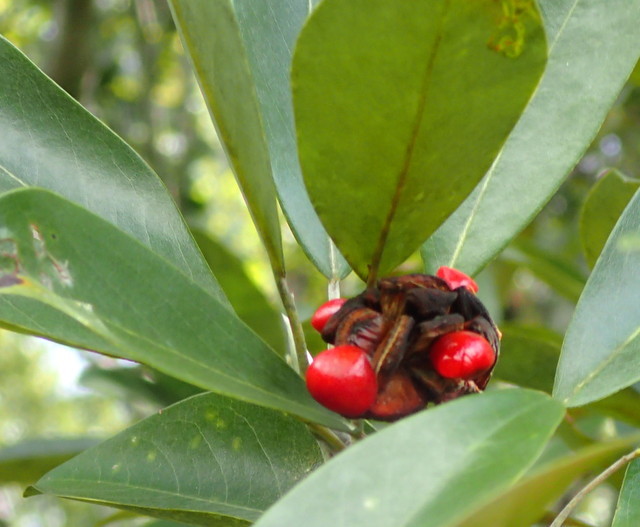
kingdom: Plantae
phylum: Tracheophyta
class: Magnoliopsida
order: Magnoliales
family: Magnoliaceae
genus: Magnolia
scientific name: Magnolia virginiana
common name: Swamp bay
